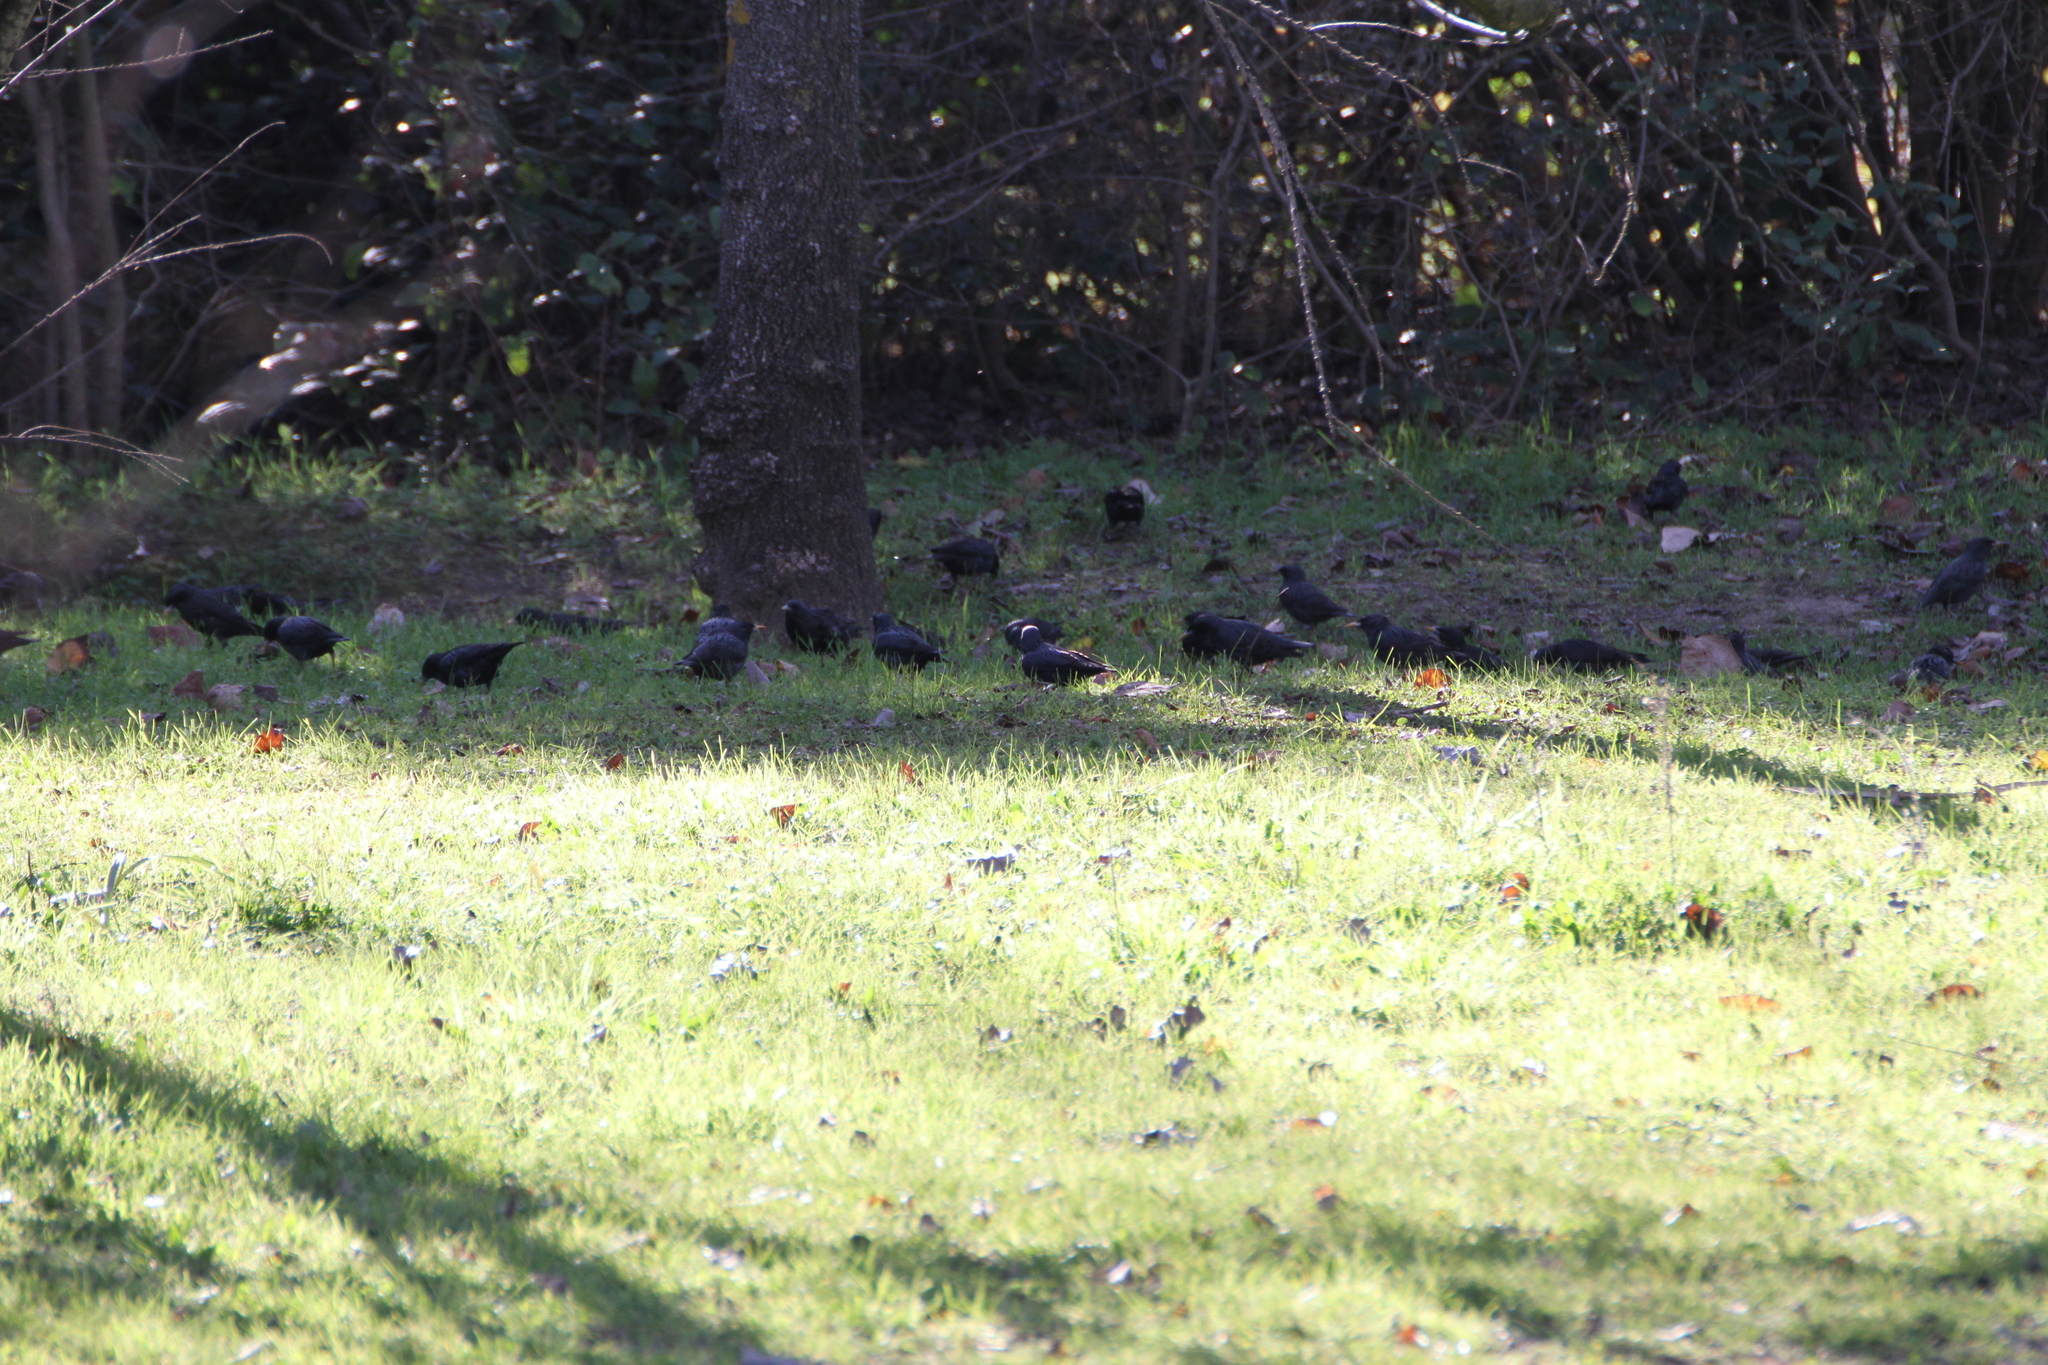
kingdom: Animalia
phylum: Chordata
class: Aves
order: Passeriformes
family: Sturnidae
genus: Sturnus
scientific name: Sturnus unicolor
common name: Spotless starling
